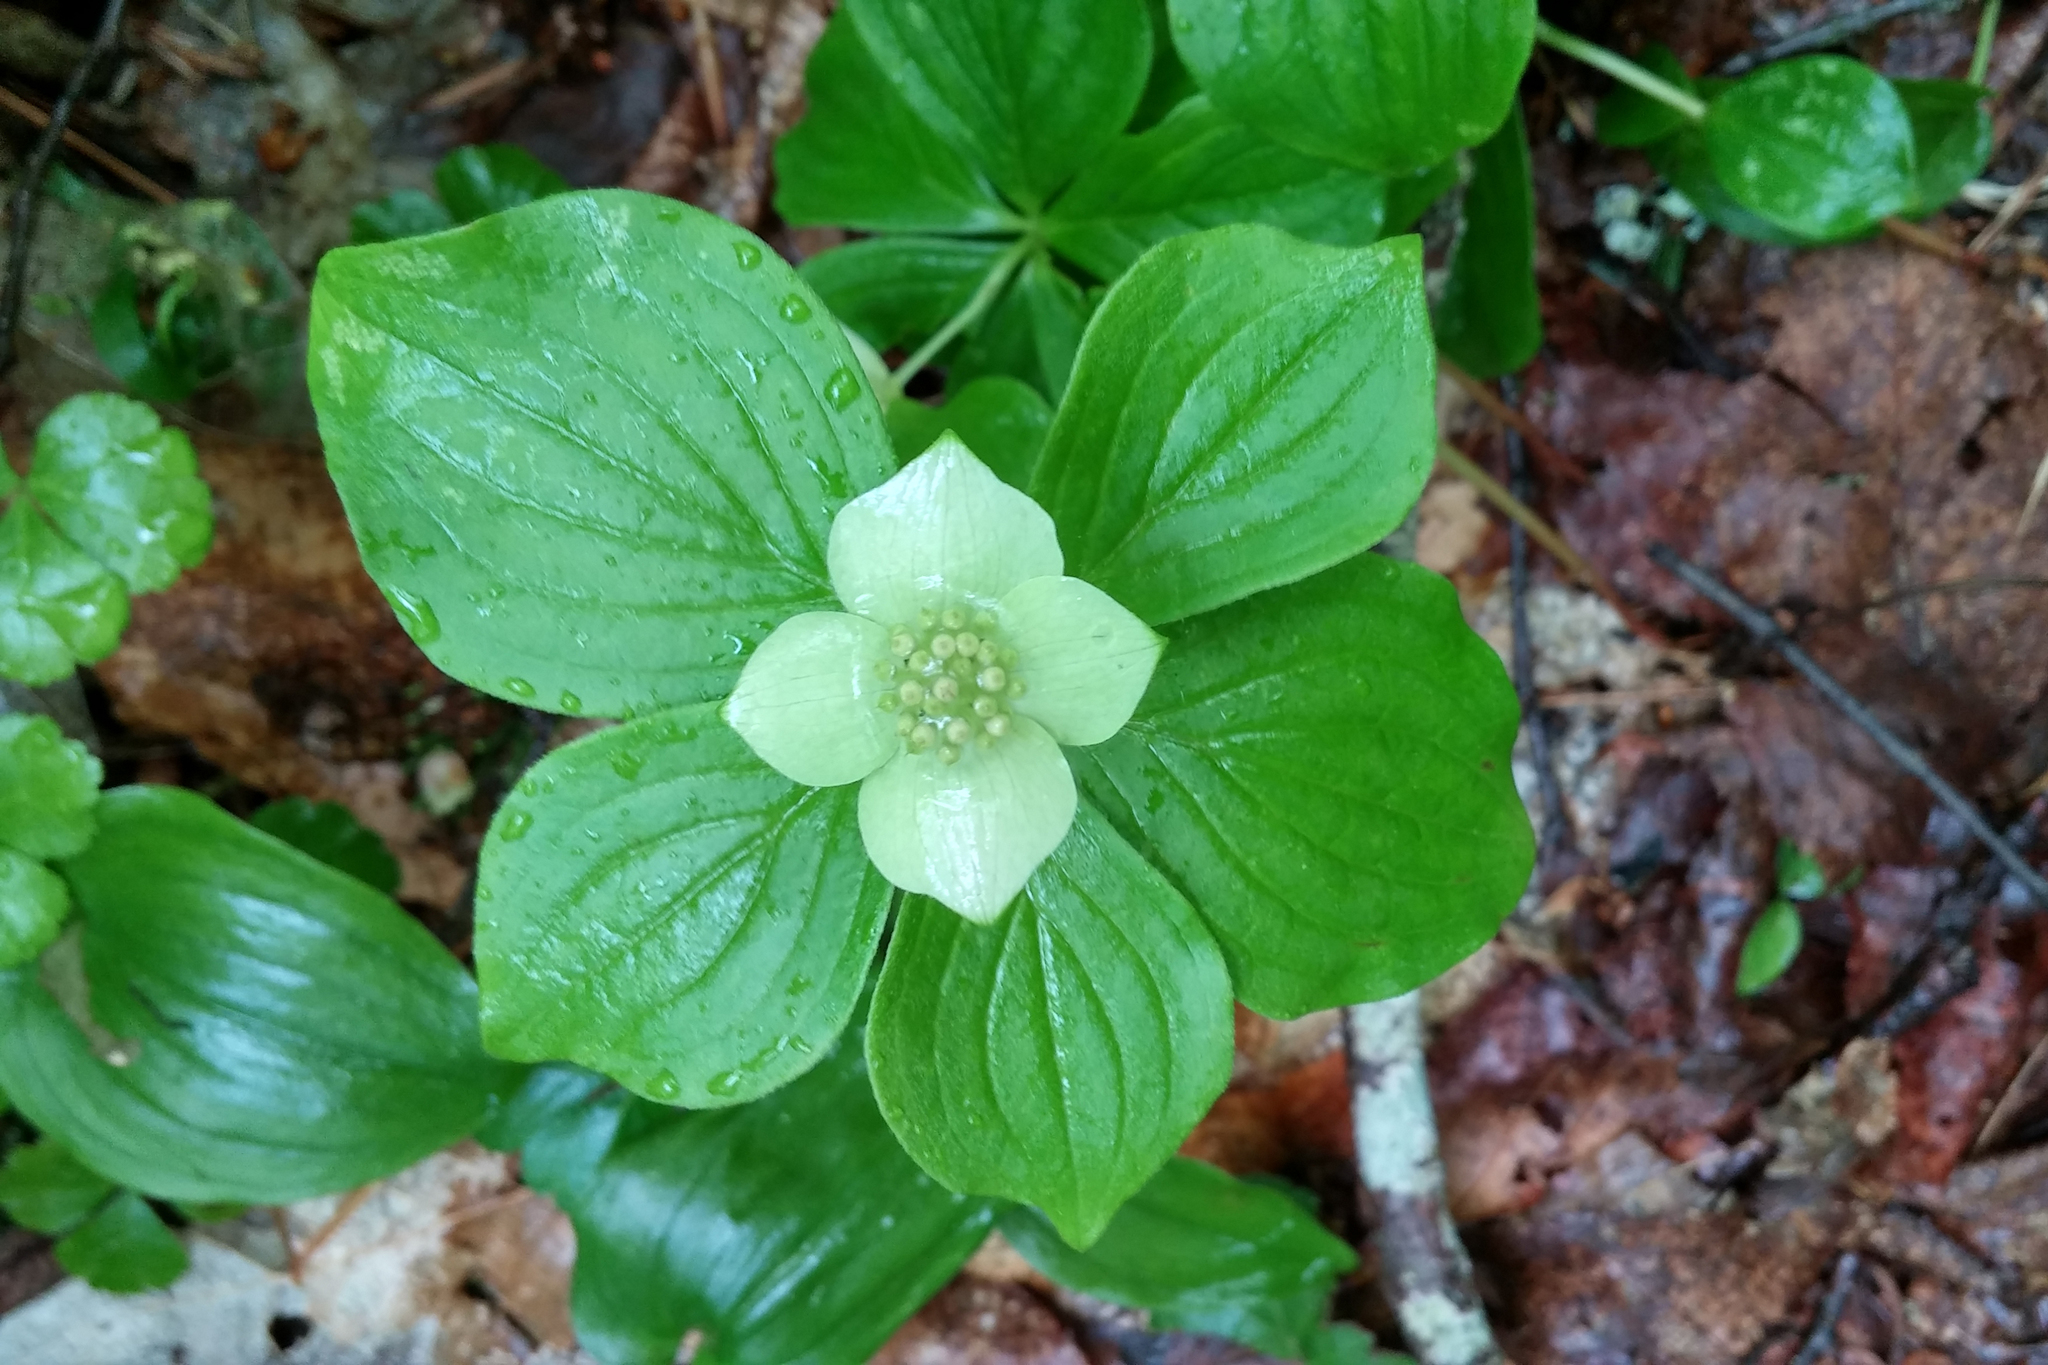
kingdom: Plantae
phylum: Tracheophyta
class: Magnoliopsida
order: Cornales
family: Cornaceae
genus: Cornus
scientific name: Cornus canadensis
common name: Creeping dogwood
